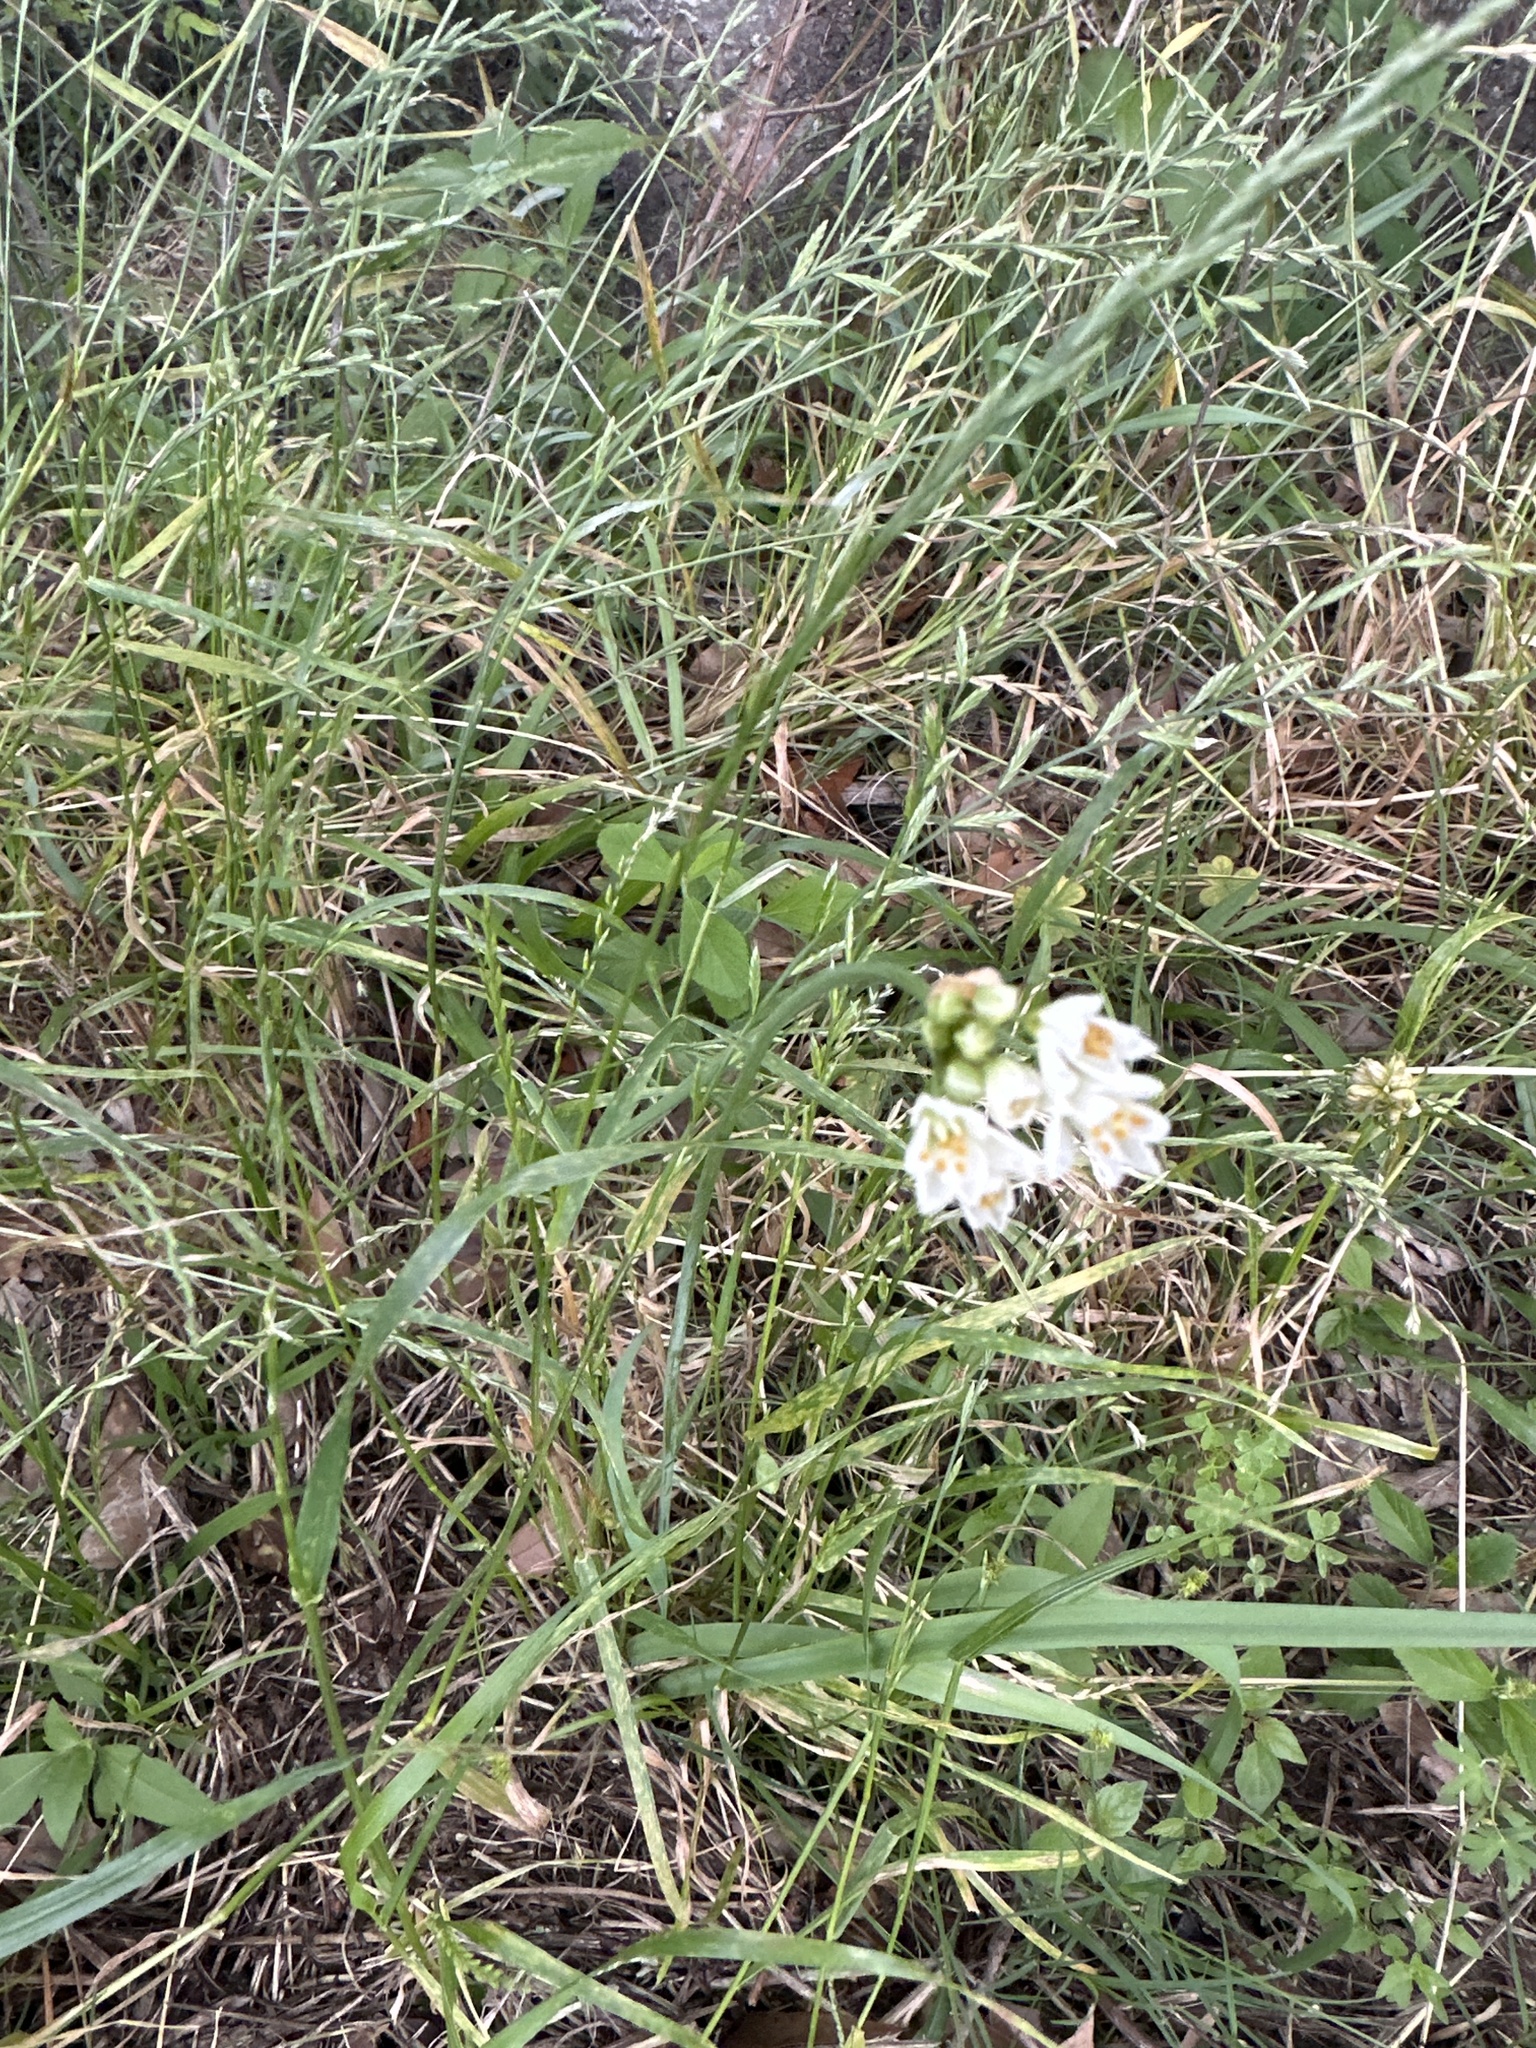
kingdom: Plantae
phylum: Tracheophyta
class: Liliopsida
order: Asparagales
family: Amaryllidaceae
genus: Nothoscordum
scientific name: Nothoscordum bivalve
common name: Crow-poison
